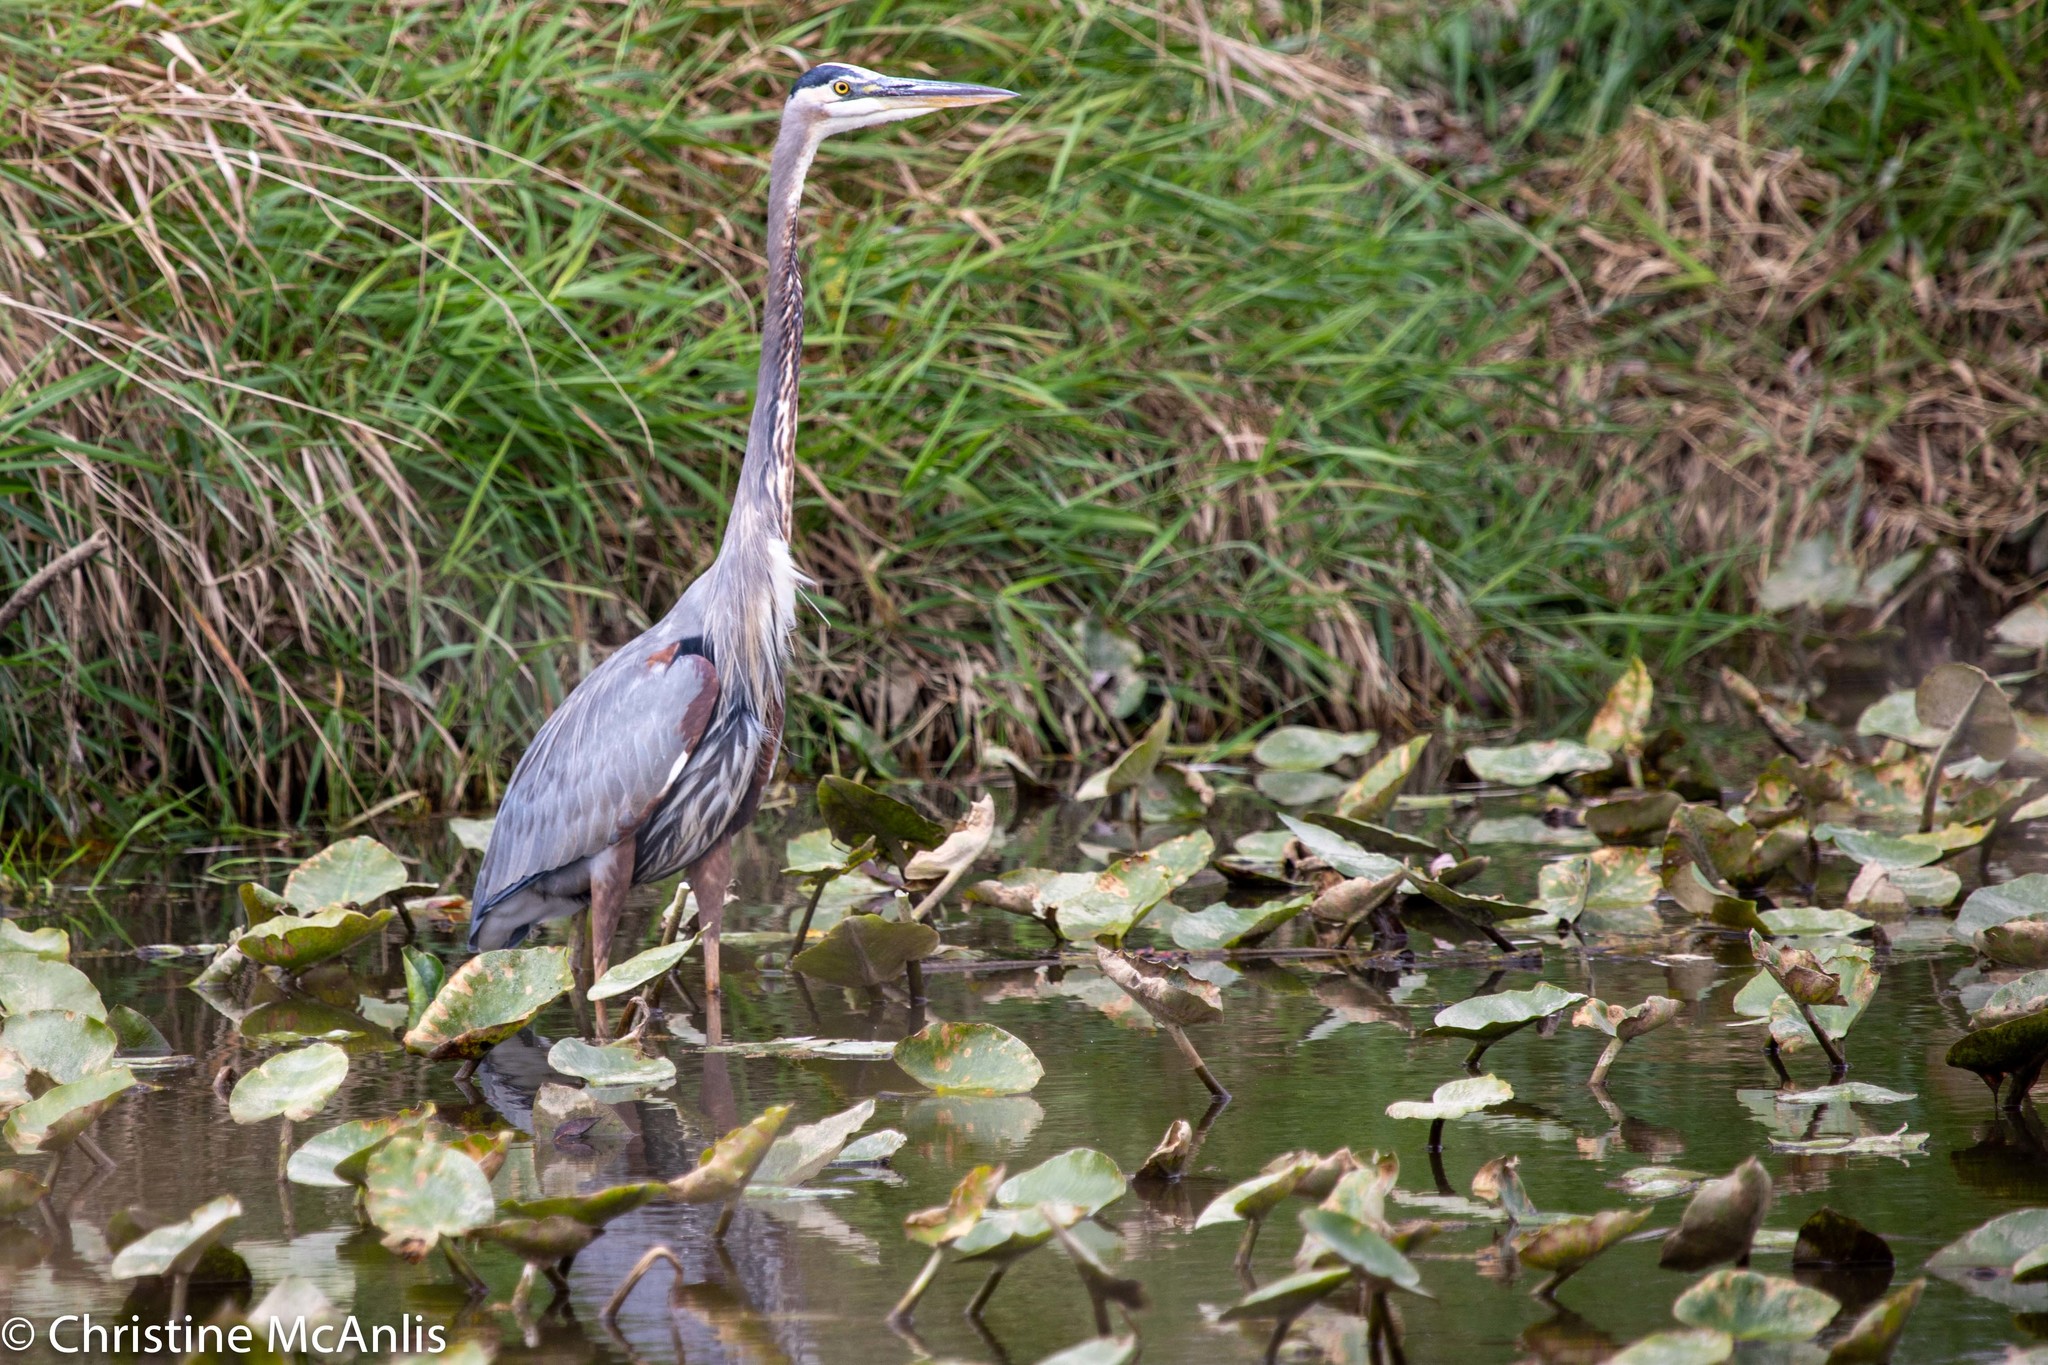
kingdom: Animalia
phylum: Chordata
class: Aves
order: Pelecaniformes
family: Ardeidae
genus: Ardea
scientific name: Ardea herodias
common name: Great blue heron
